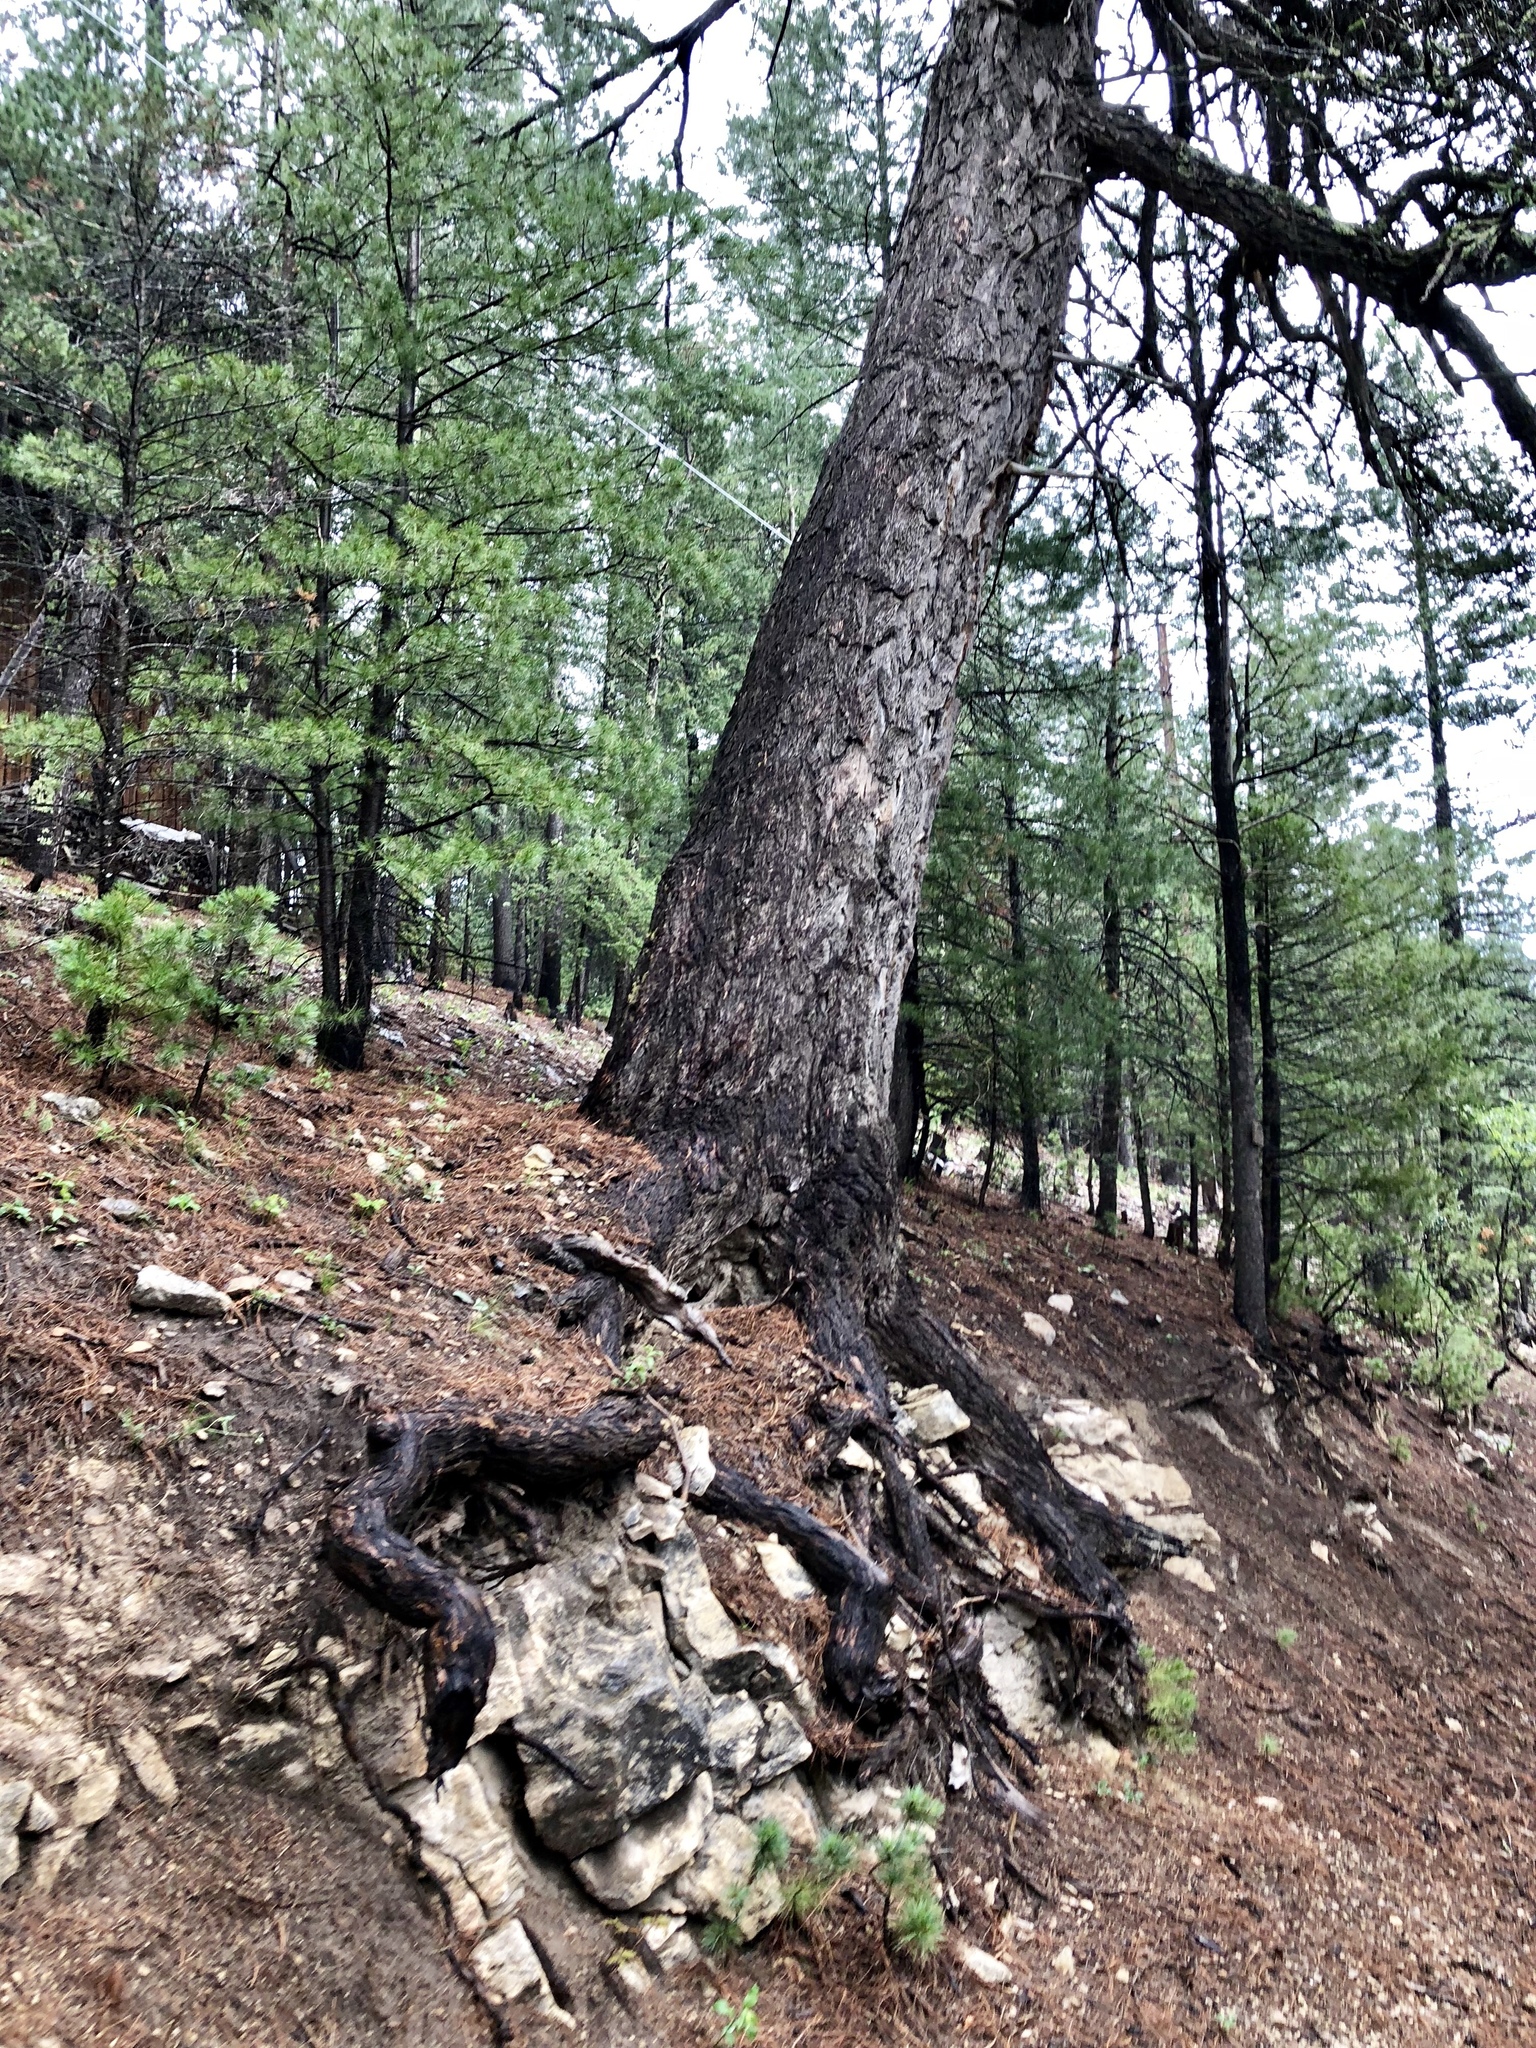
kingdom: Plantae
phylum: Tracheophyta
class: Pinopsida
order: Pinales
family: Pinaceae
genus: Pseudotsuga
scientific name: Pseudotsuga menziesii
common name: Douglas fir
